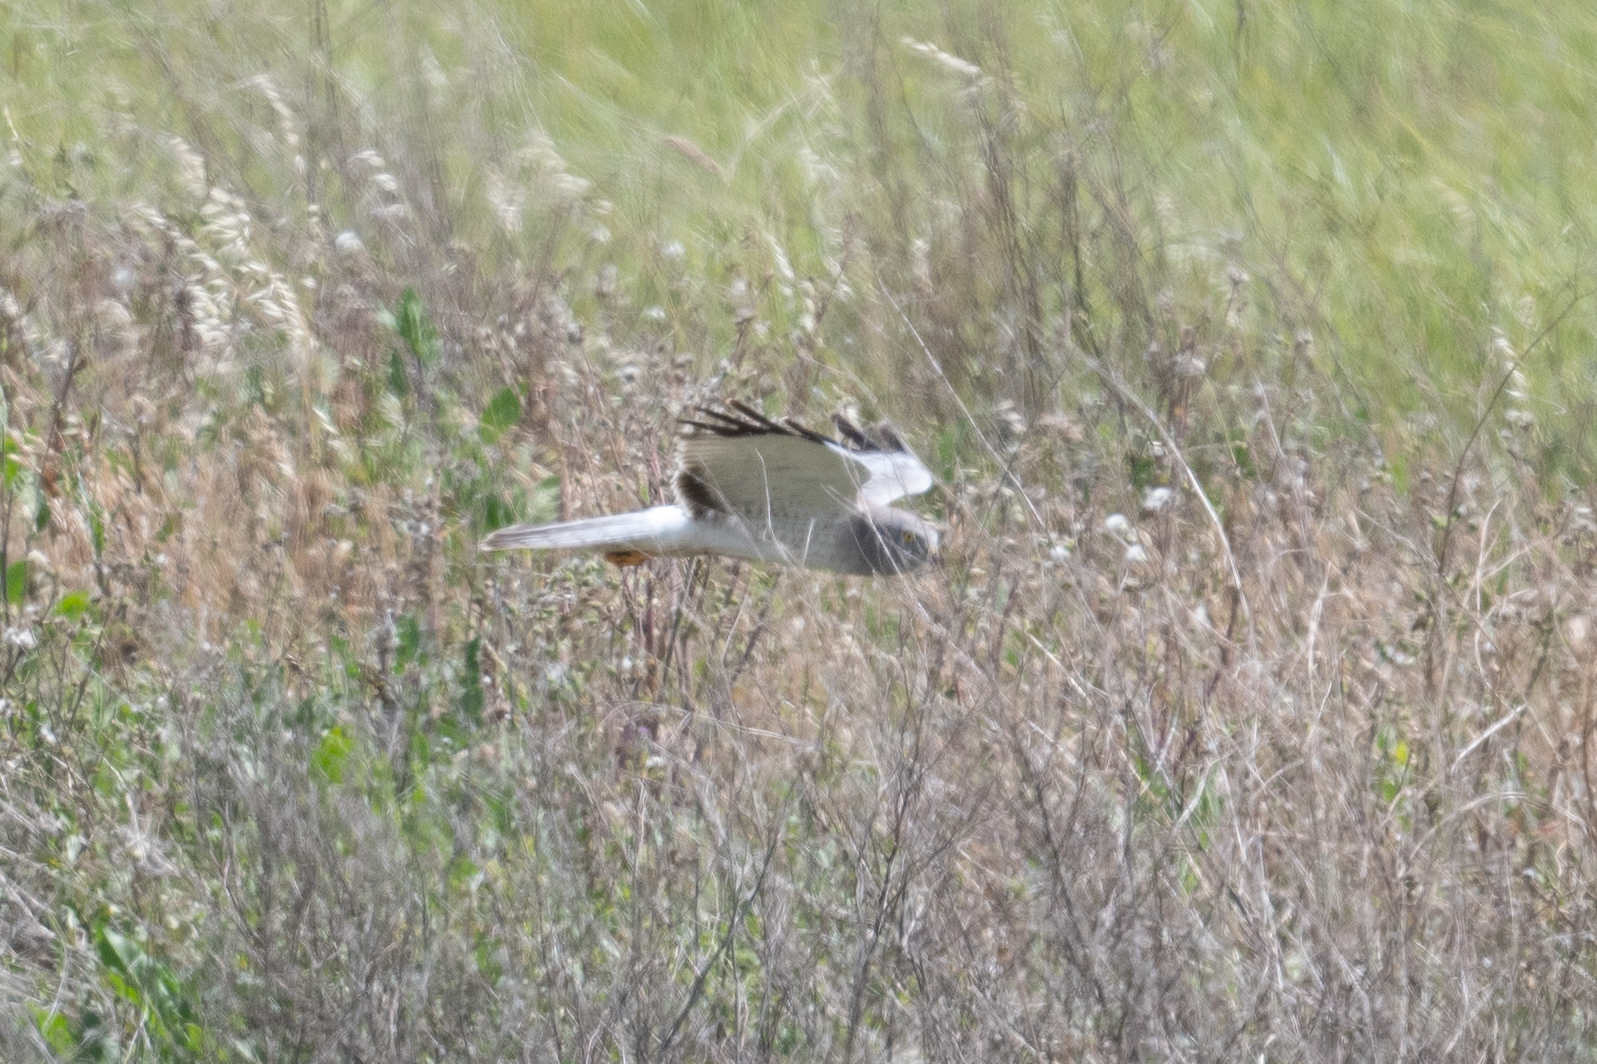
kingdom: Animalia
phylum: Chordata
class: Aves
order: Accipitriformes
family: Accipitridae
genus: Circus
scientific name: Circus cyaneus
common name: Hen harrier
